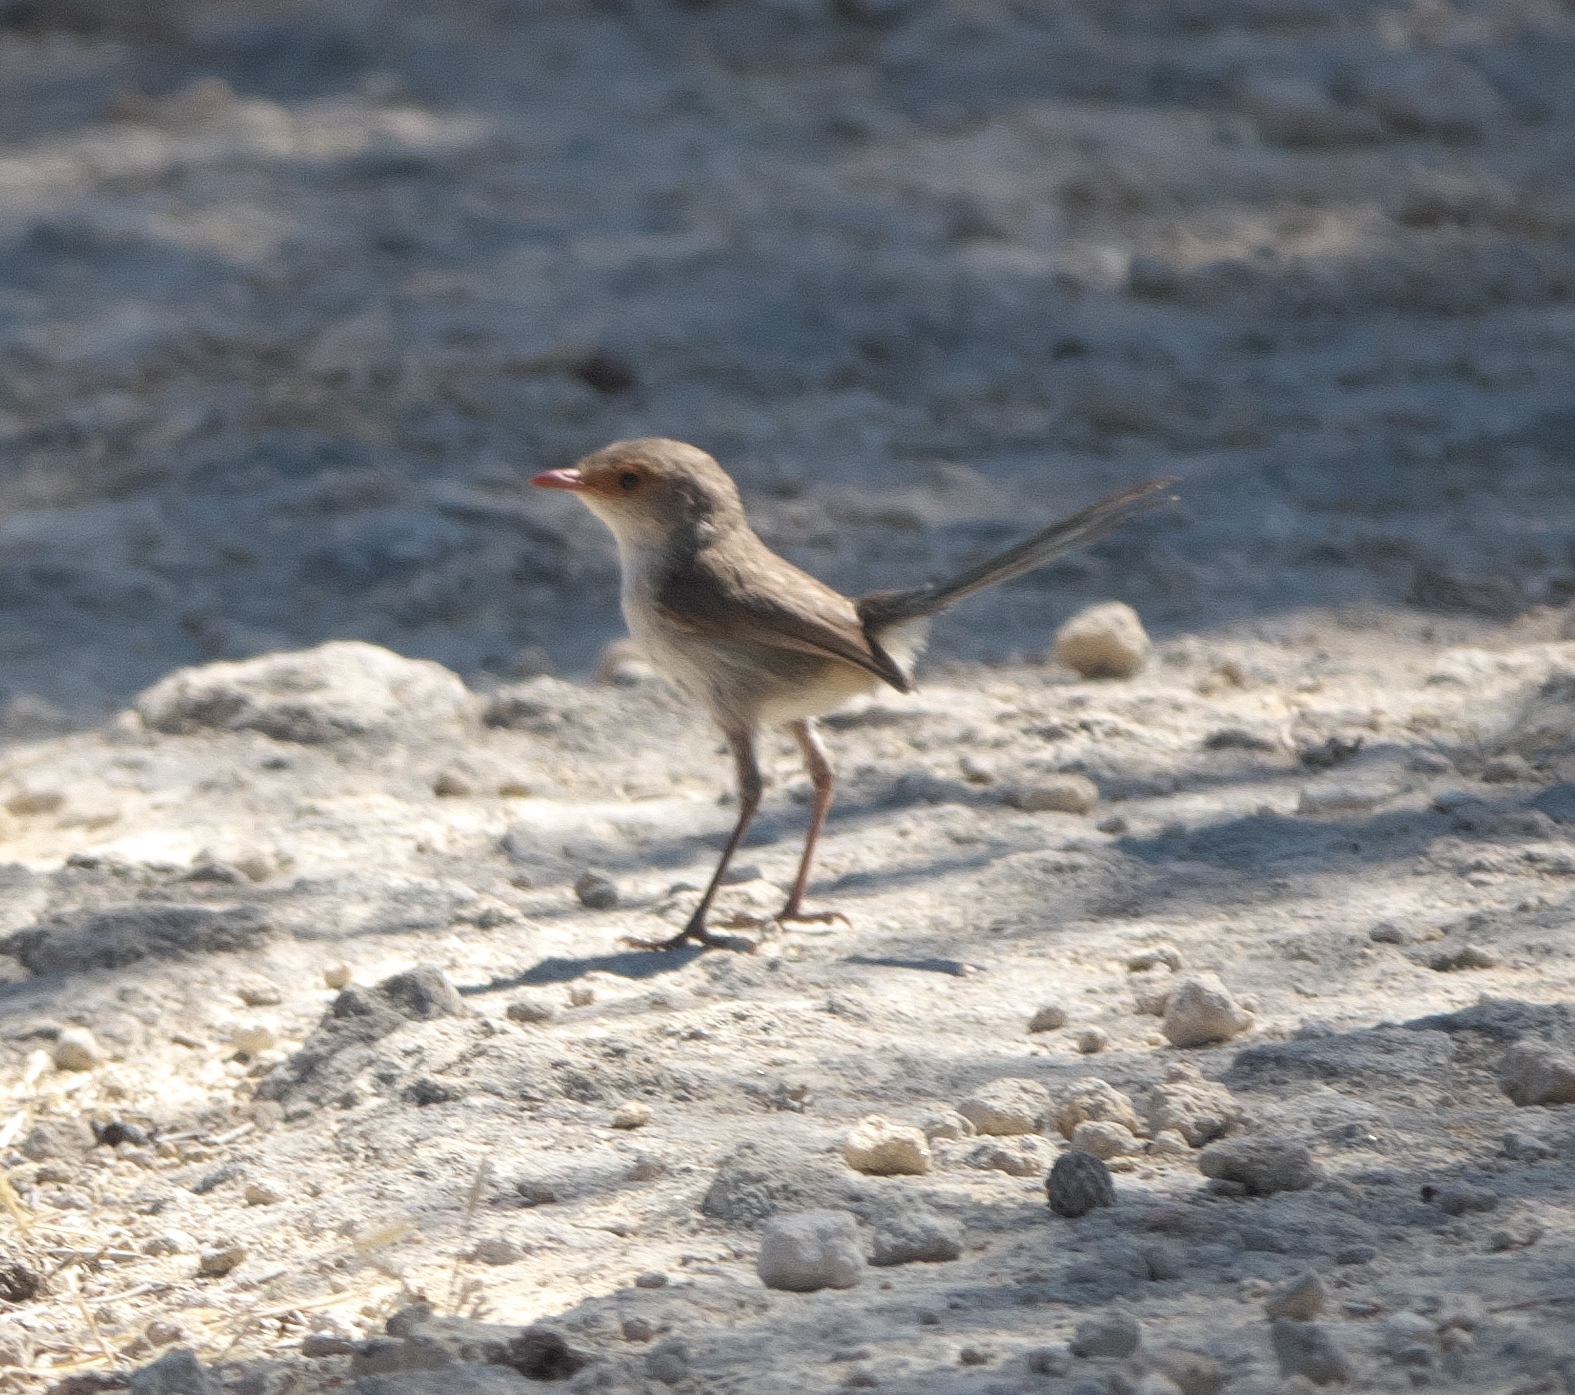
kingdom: Animalia
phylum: Chordata
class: Aves
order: Passeriformes
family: Maluridae
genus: Malurus
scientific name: Malurus splendens
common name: Splendid fairywren
